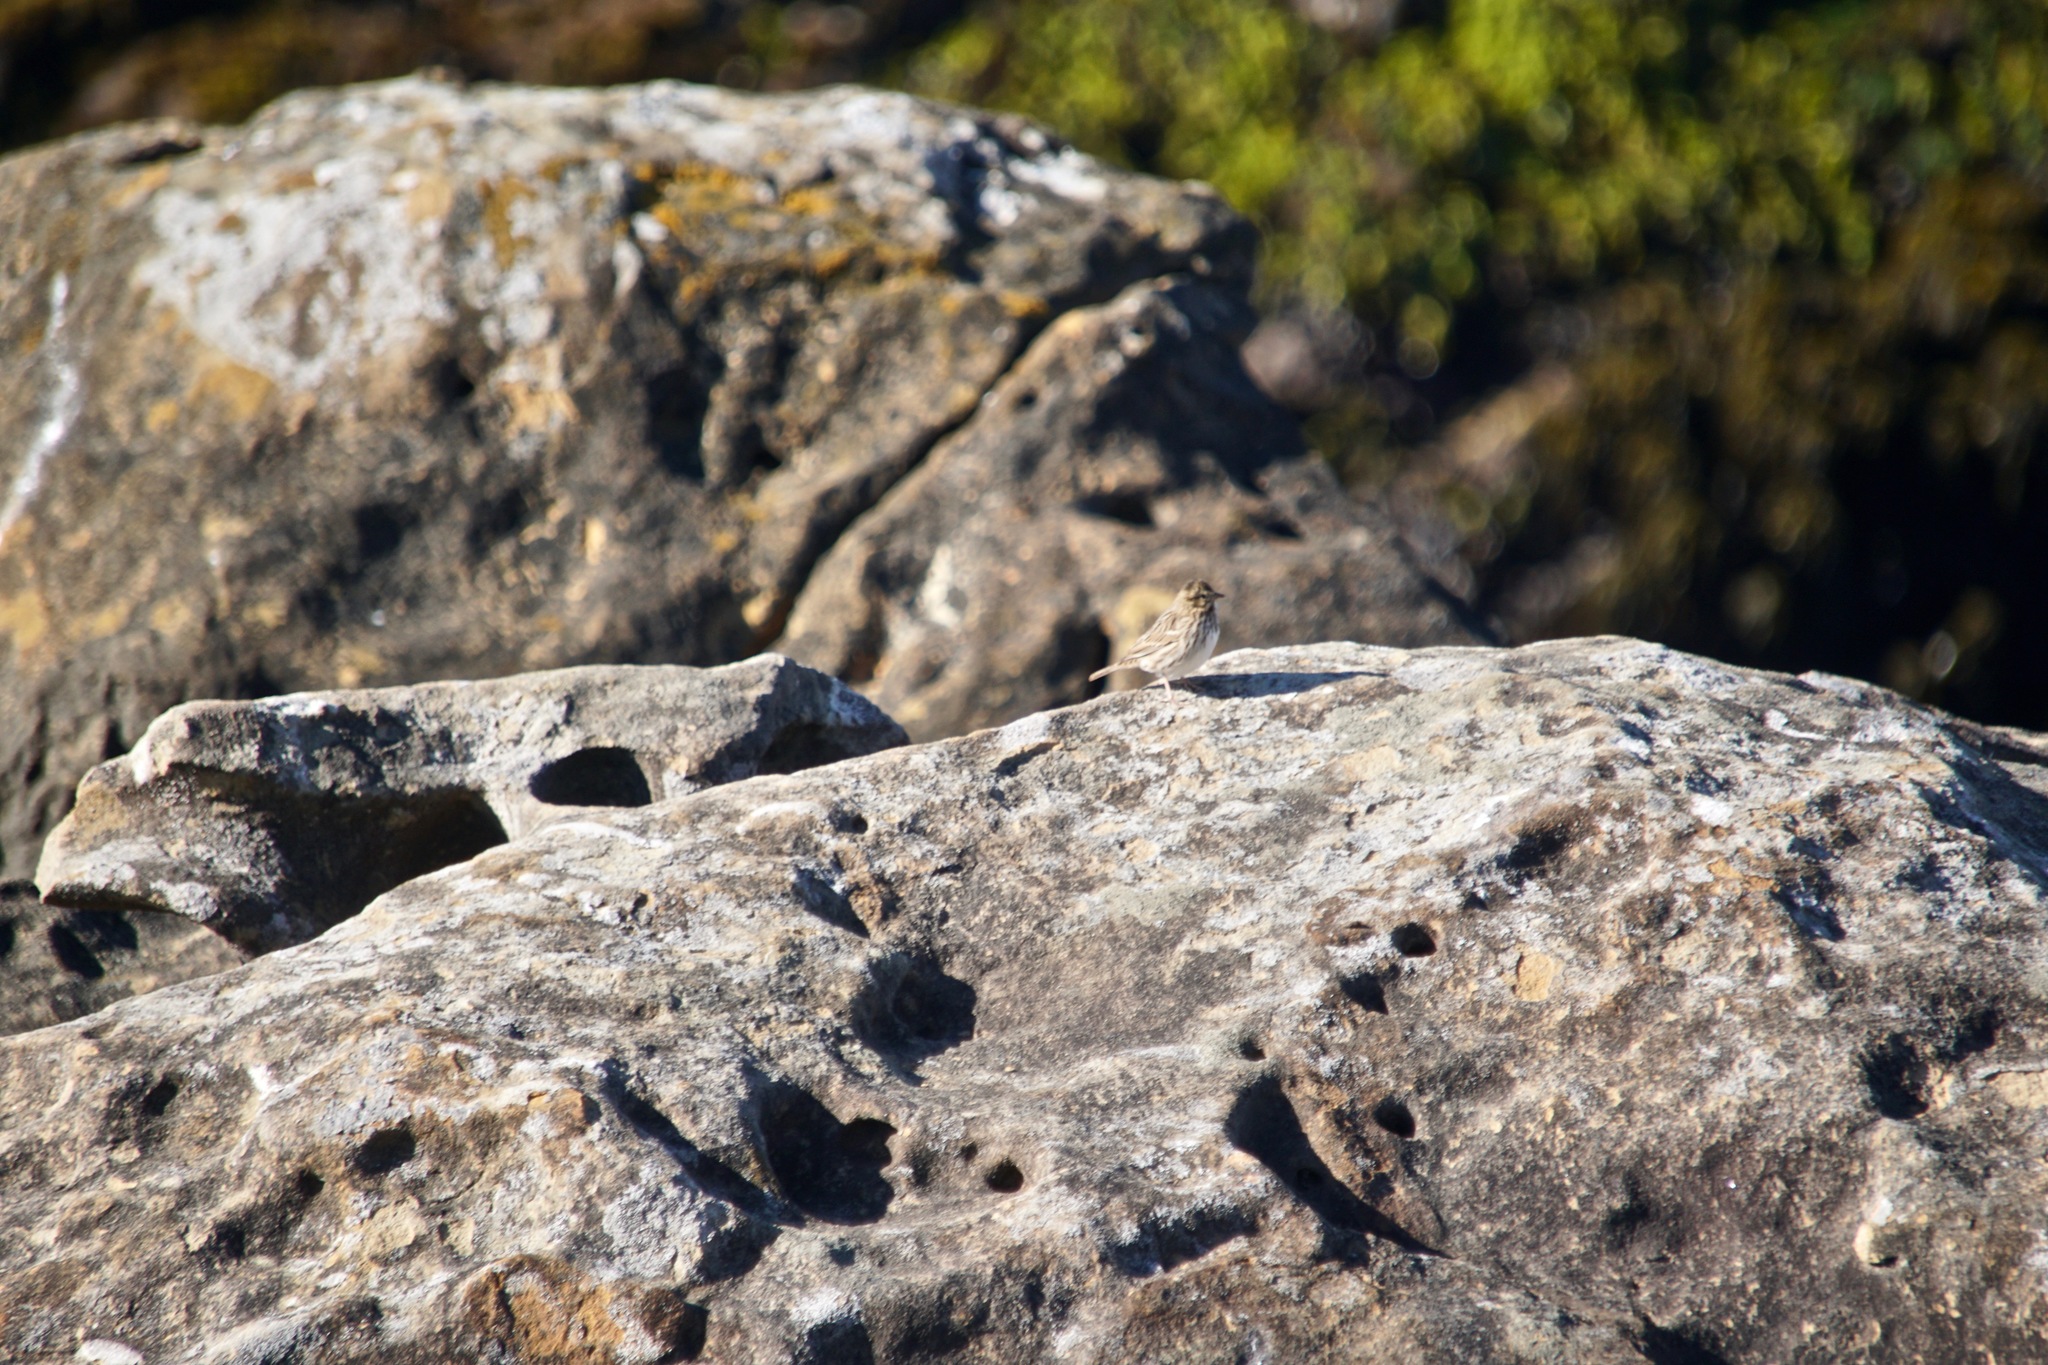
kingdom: Animalia
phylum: Chordata
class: Aves
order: Passeriformes
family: Passerellidae
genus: Passerculus
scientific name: Passerculus sandwichensis
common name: Savannah sparrow
